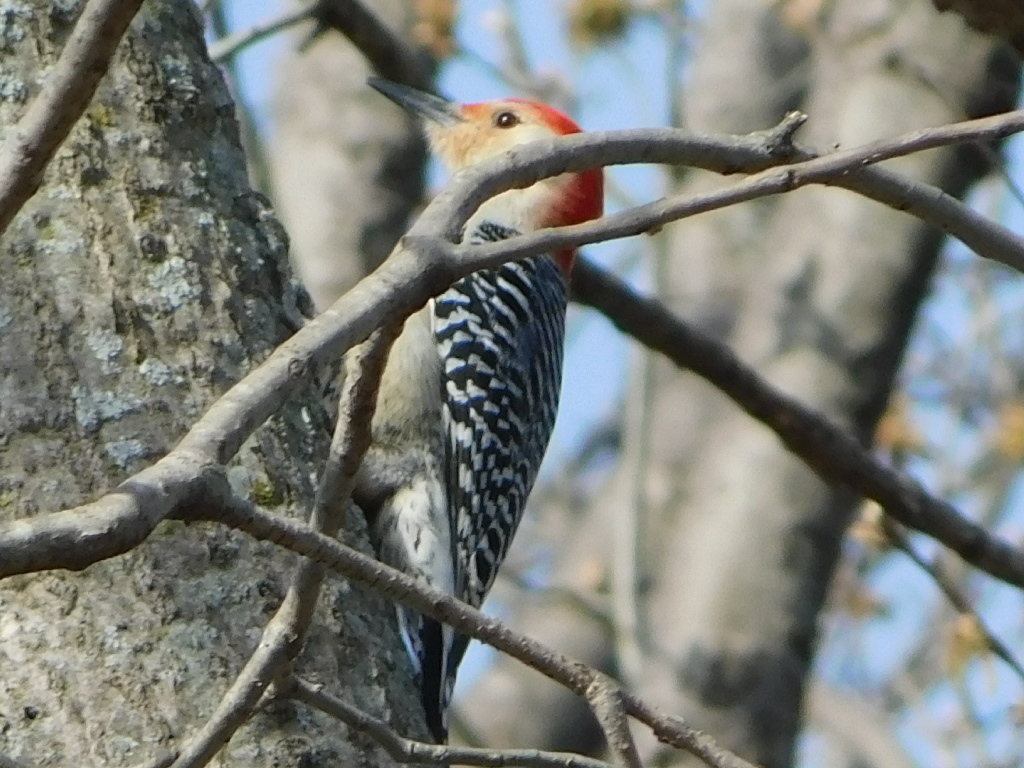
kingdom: Animalia
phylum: Chordata
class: Aves
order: Piciformes
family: Picidae
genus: Melanerpes
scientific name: Melanerpes carolinus
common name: Red-bellied woodpecker
